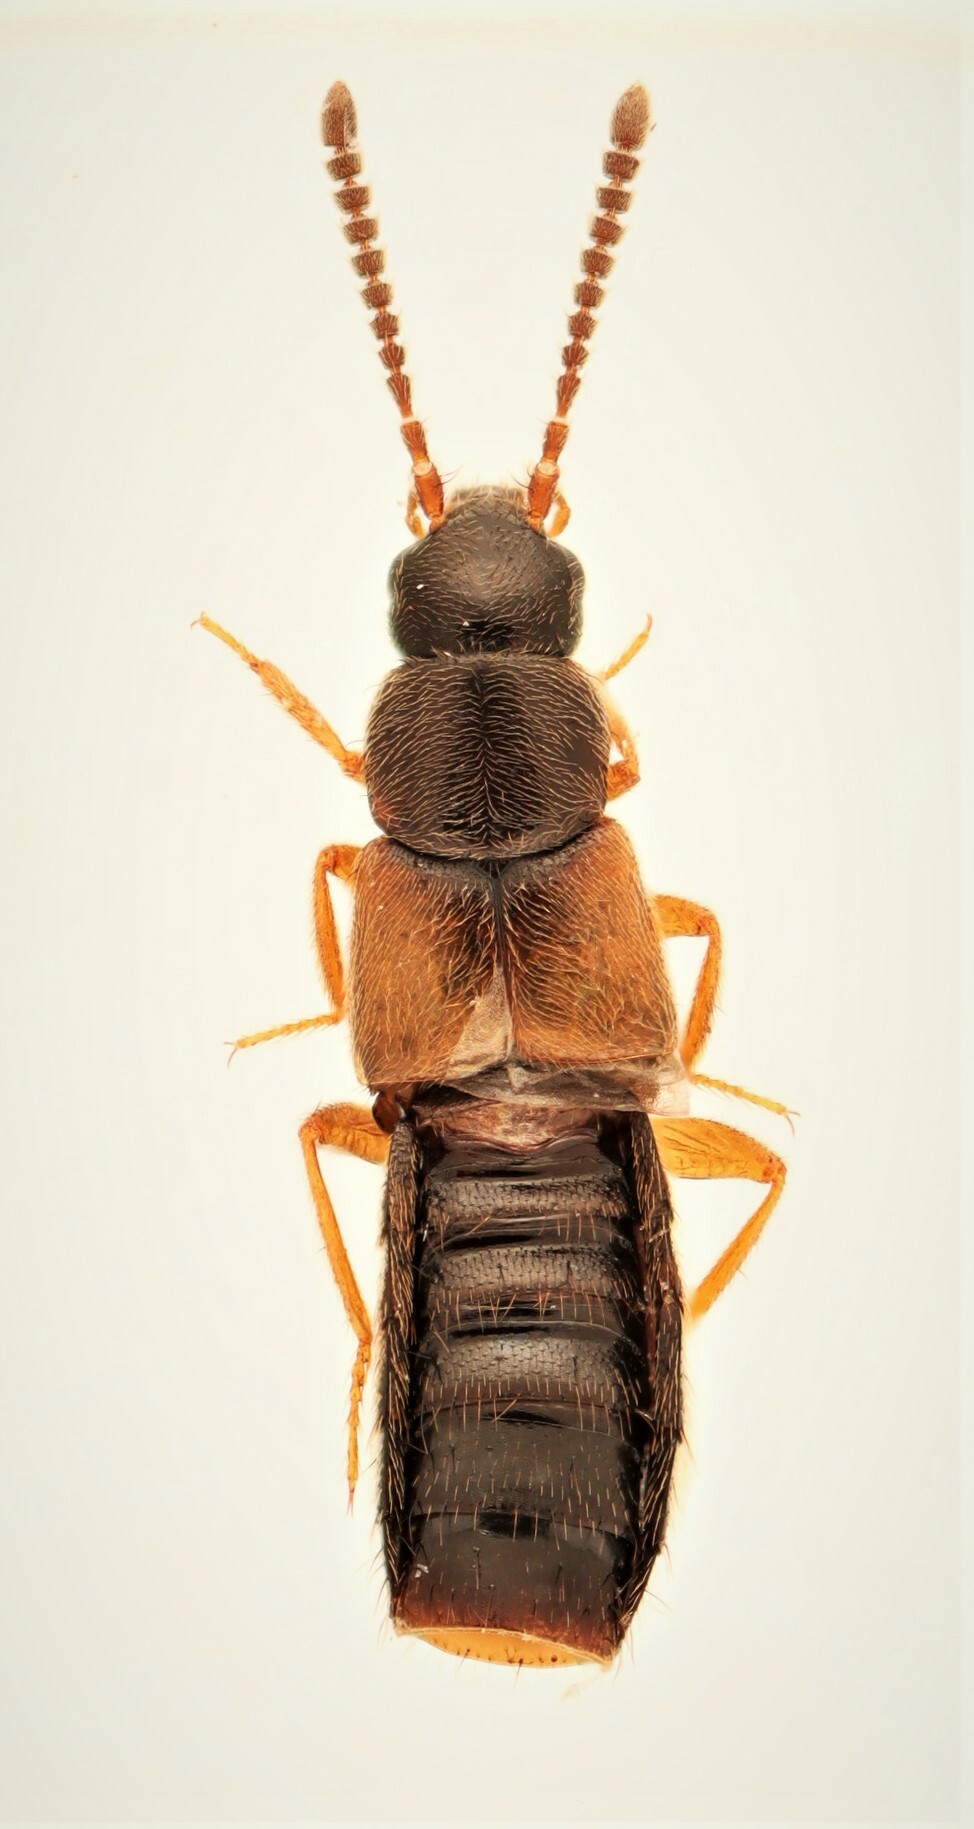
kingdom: Animalia
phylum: Arthropoda
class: Insecta
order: Coleoptera
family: Staphylinidae
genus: Atheta
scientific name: Atheta alesi
